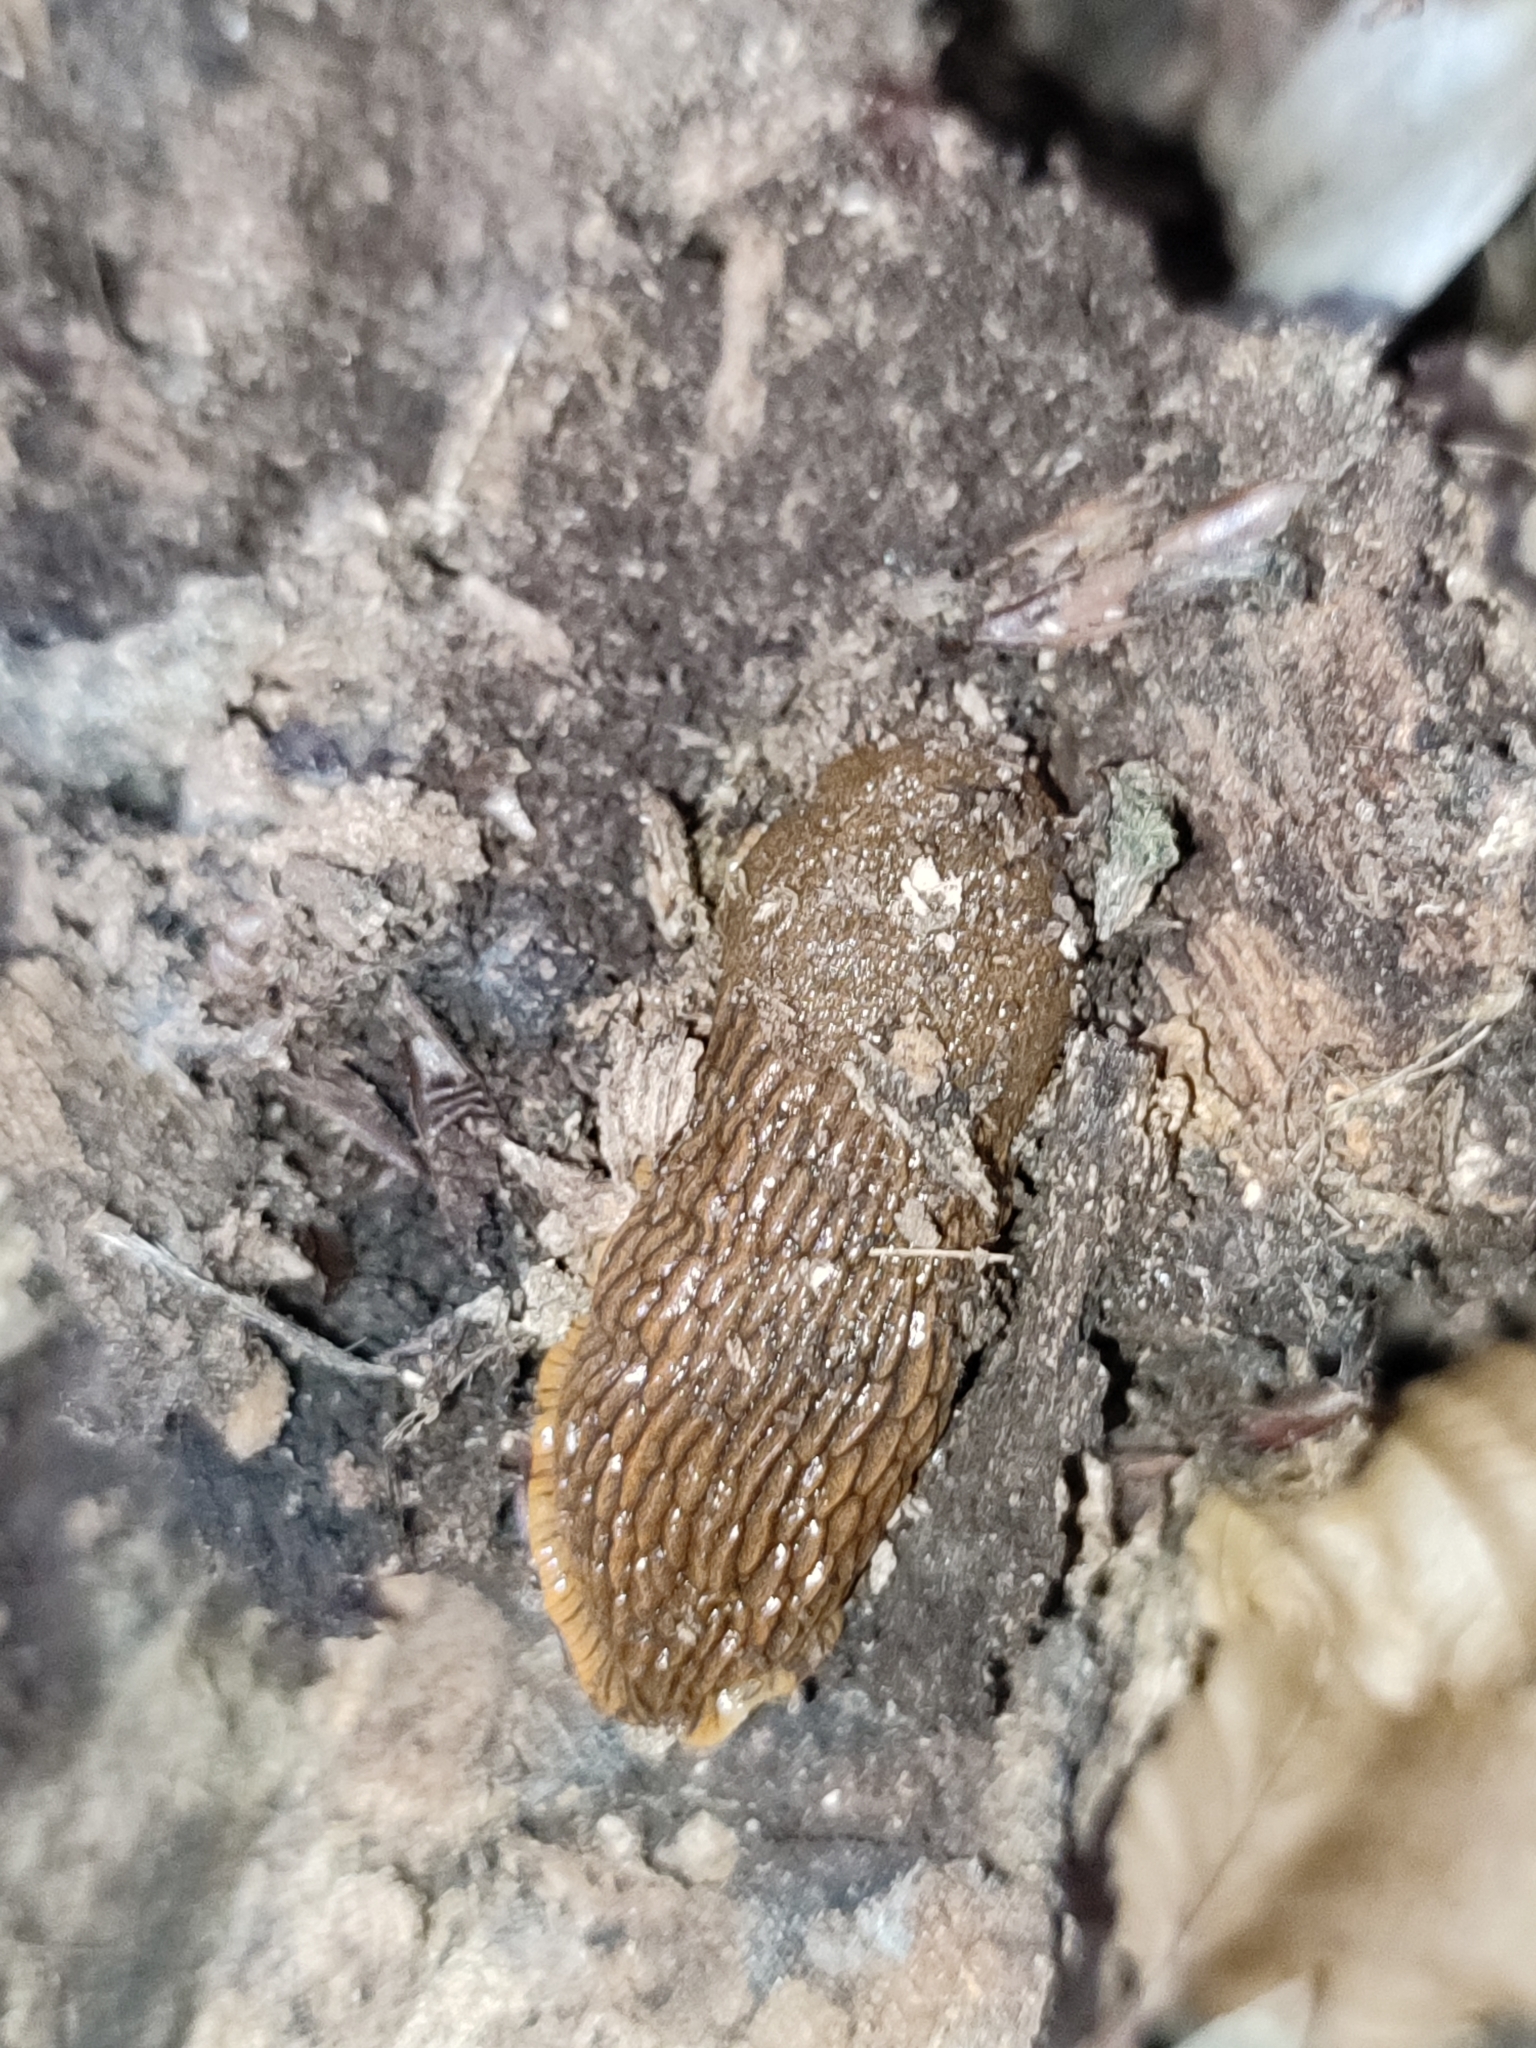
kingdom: Animalia
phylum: Mollusca
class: Gastropoda
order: Stylommatophora
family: Arionidae
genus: Arion
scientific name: Arion vulgaris
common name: Lusitanian slug
